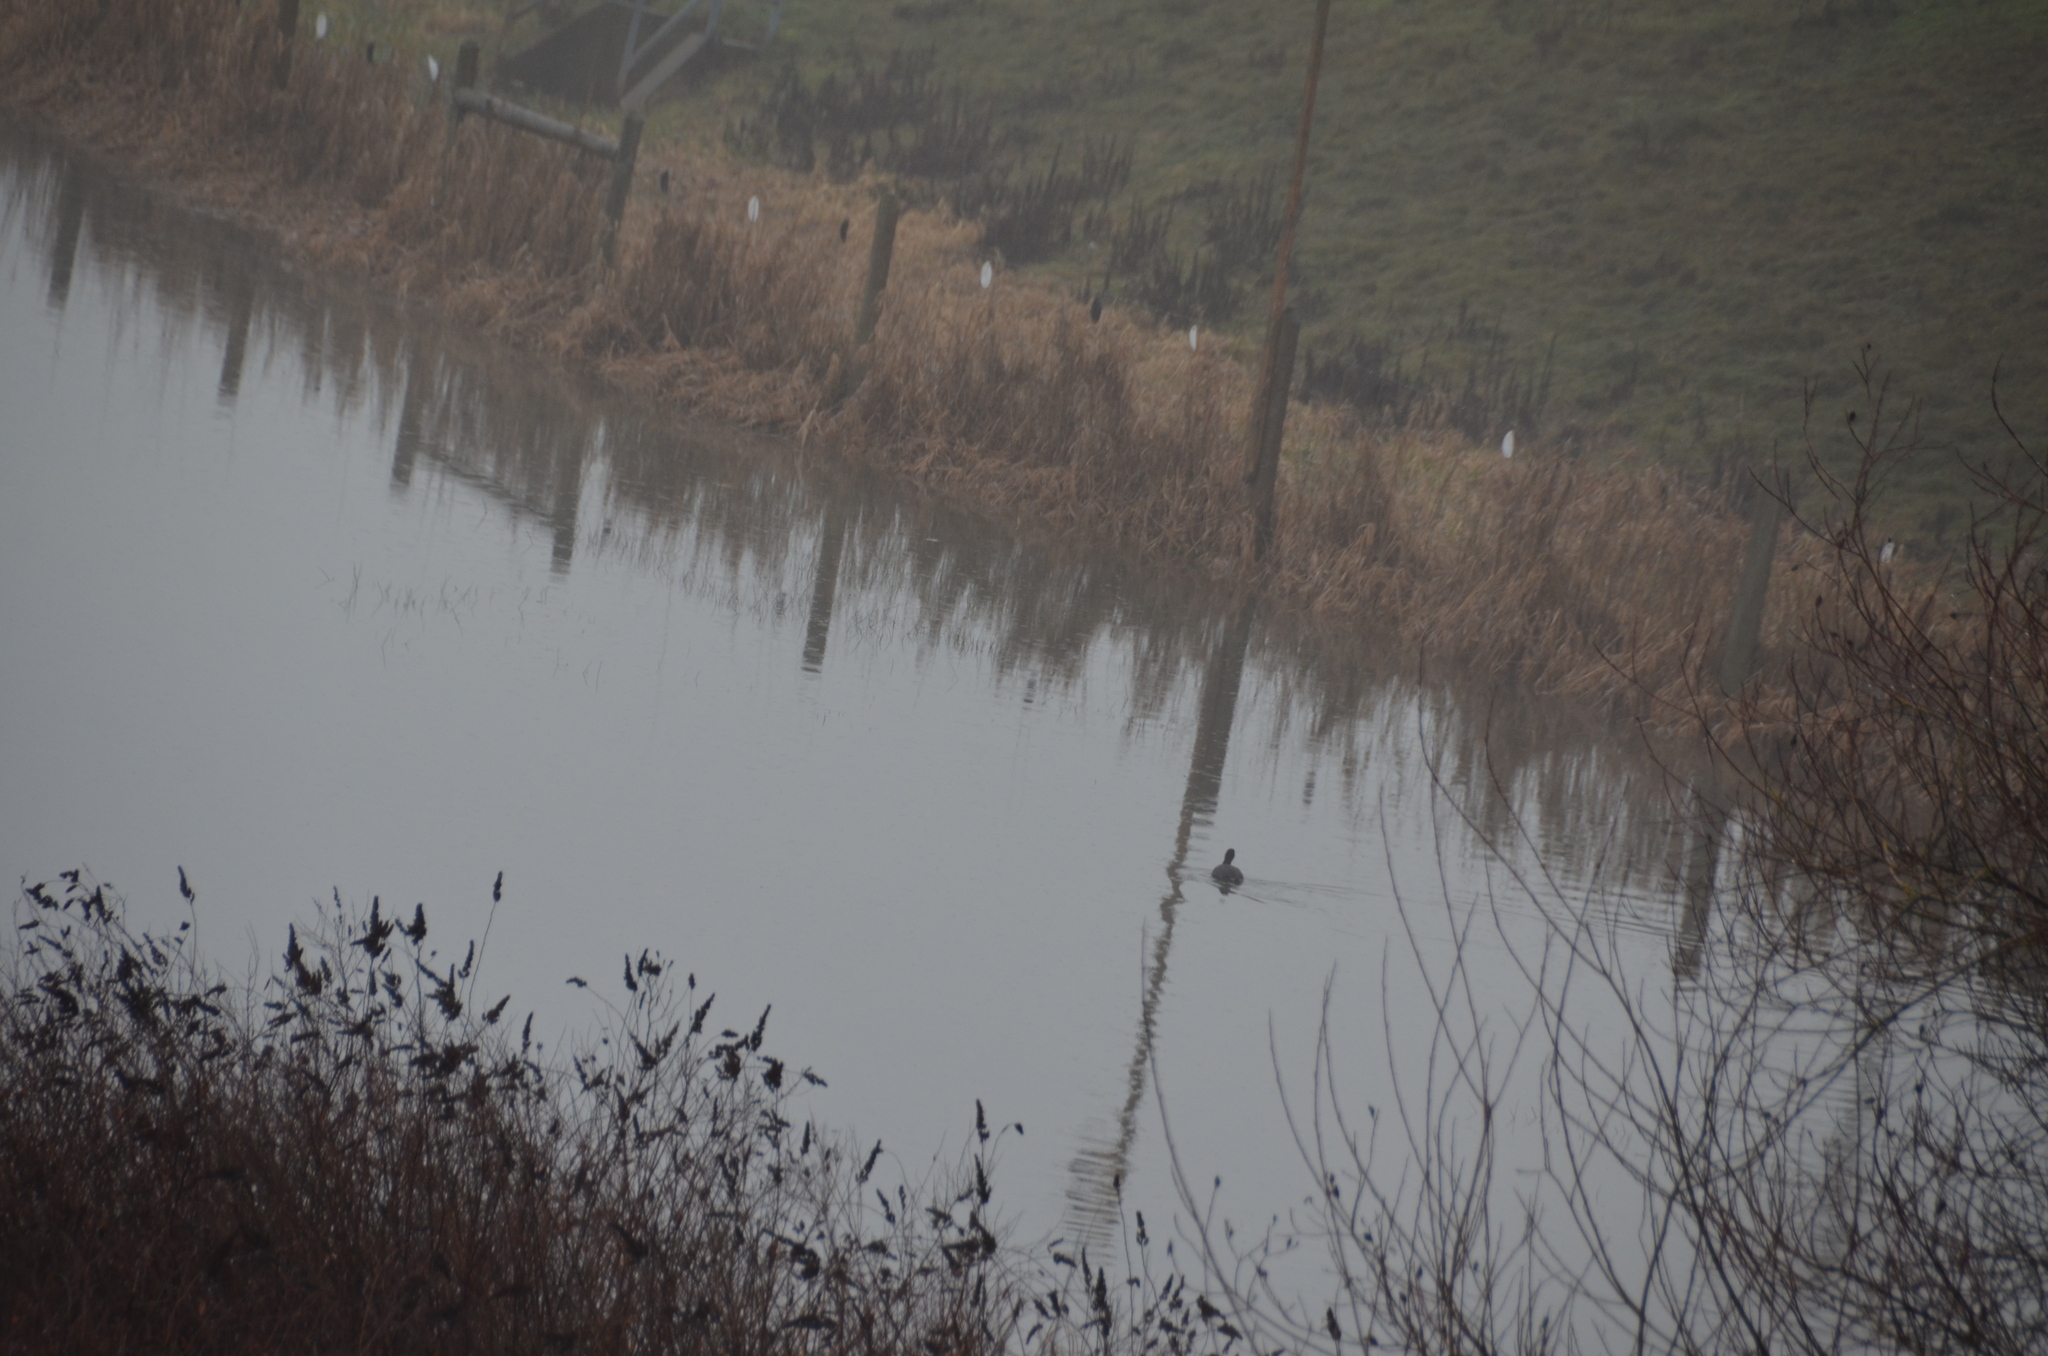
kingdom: Animalia
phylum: Chordata
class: Aves
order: Gruiformes
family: Rallidae
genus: Fulica
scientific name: Fulica americana
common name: American coot
